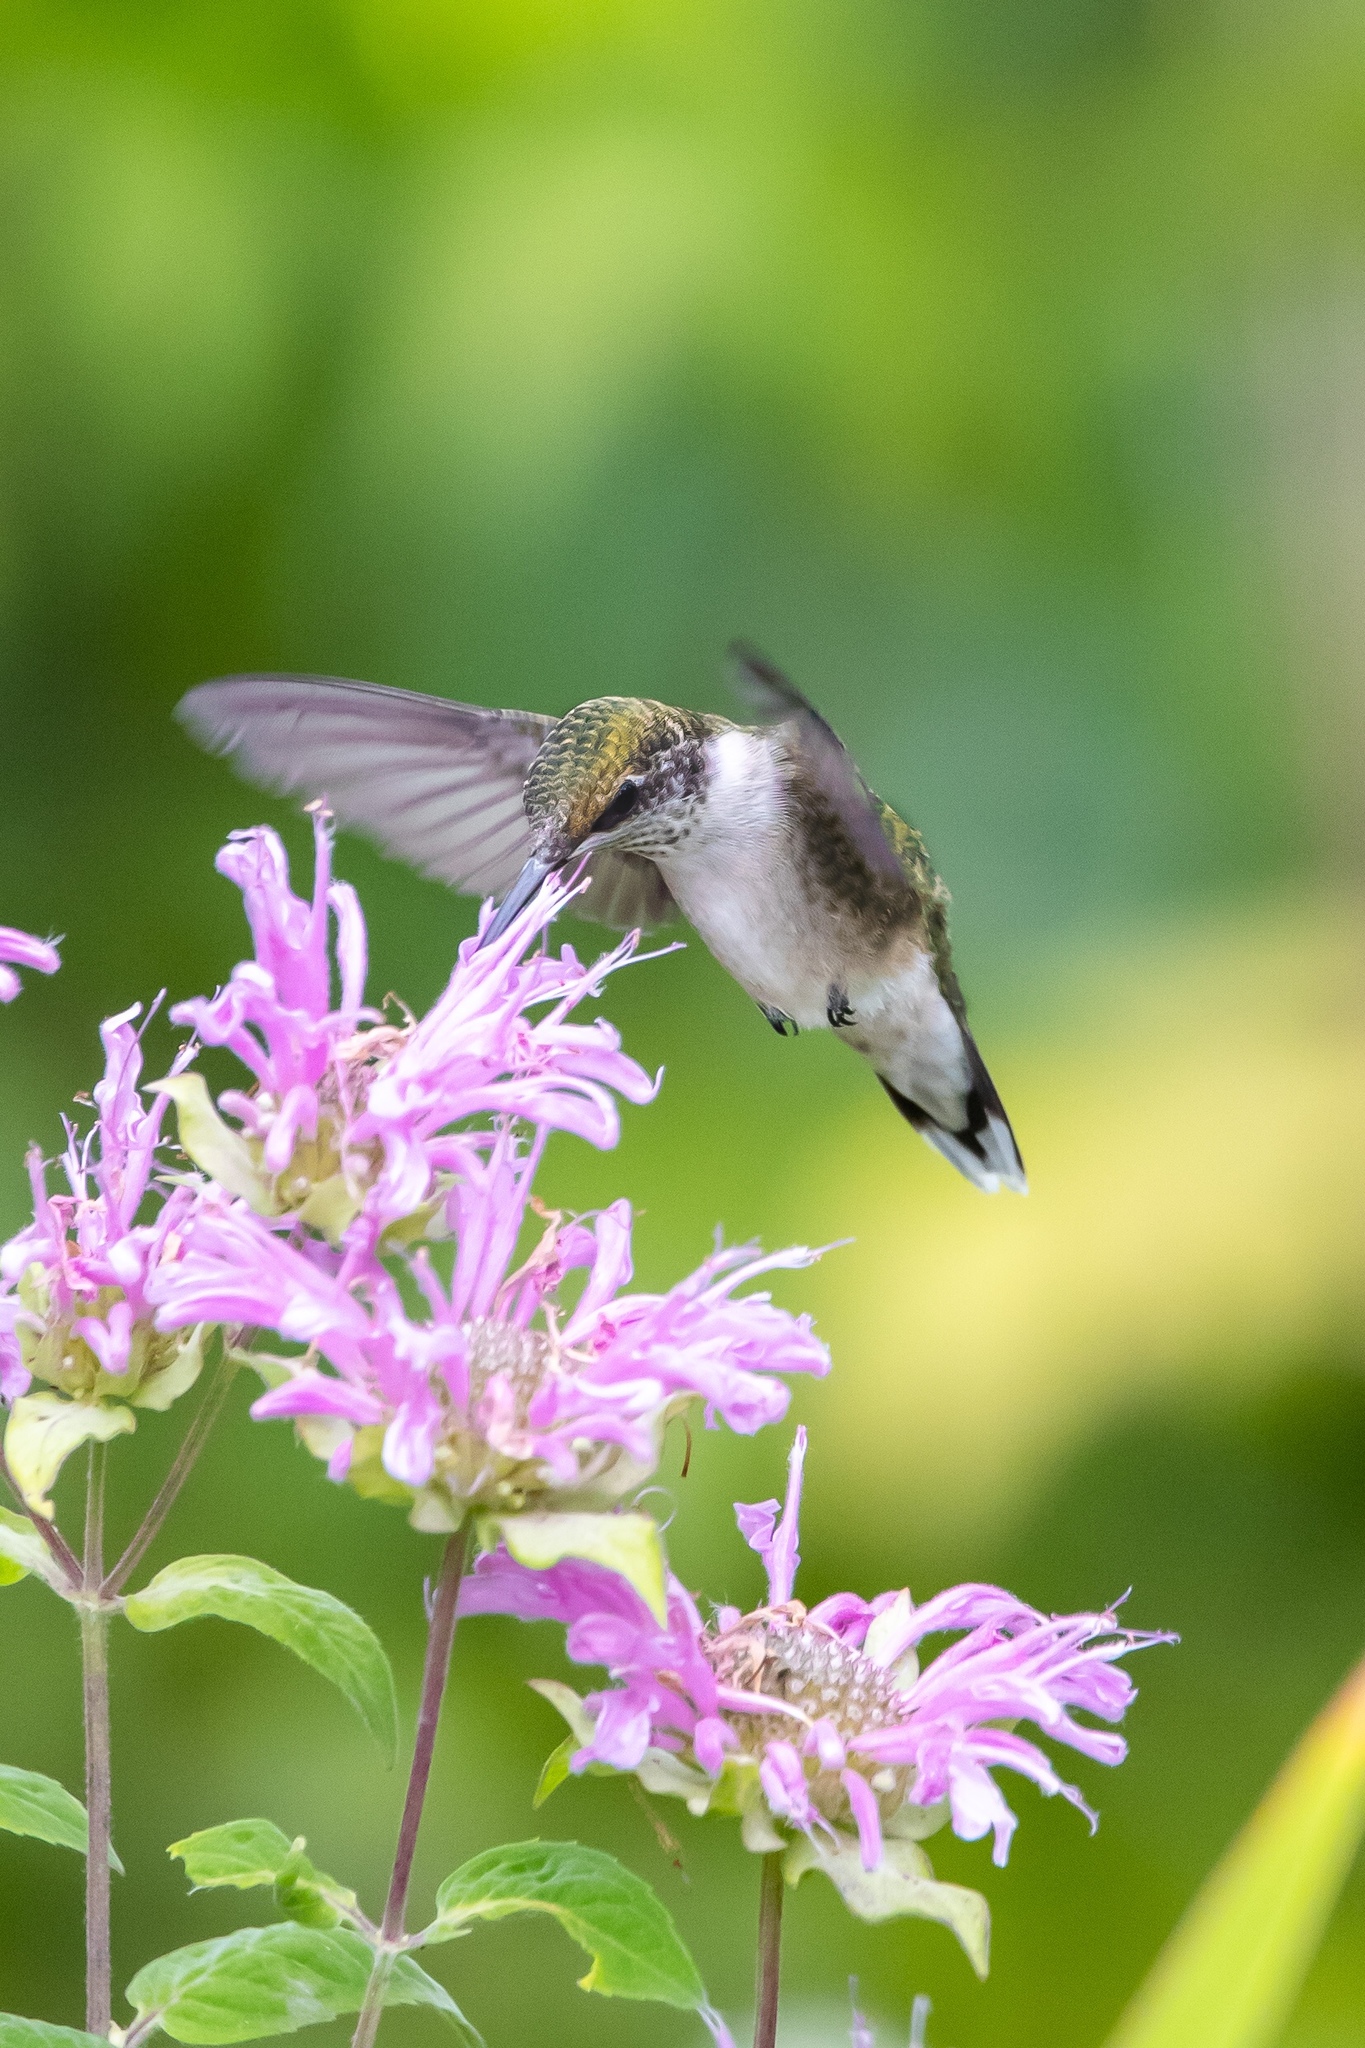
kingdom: Animalia
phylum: Chordata
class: Aves
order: Apodiformes
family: Trochilidae
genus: Archilochus
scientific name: Archilochus colubris
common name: Ruby-throated hummingbird
